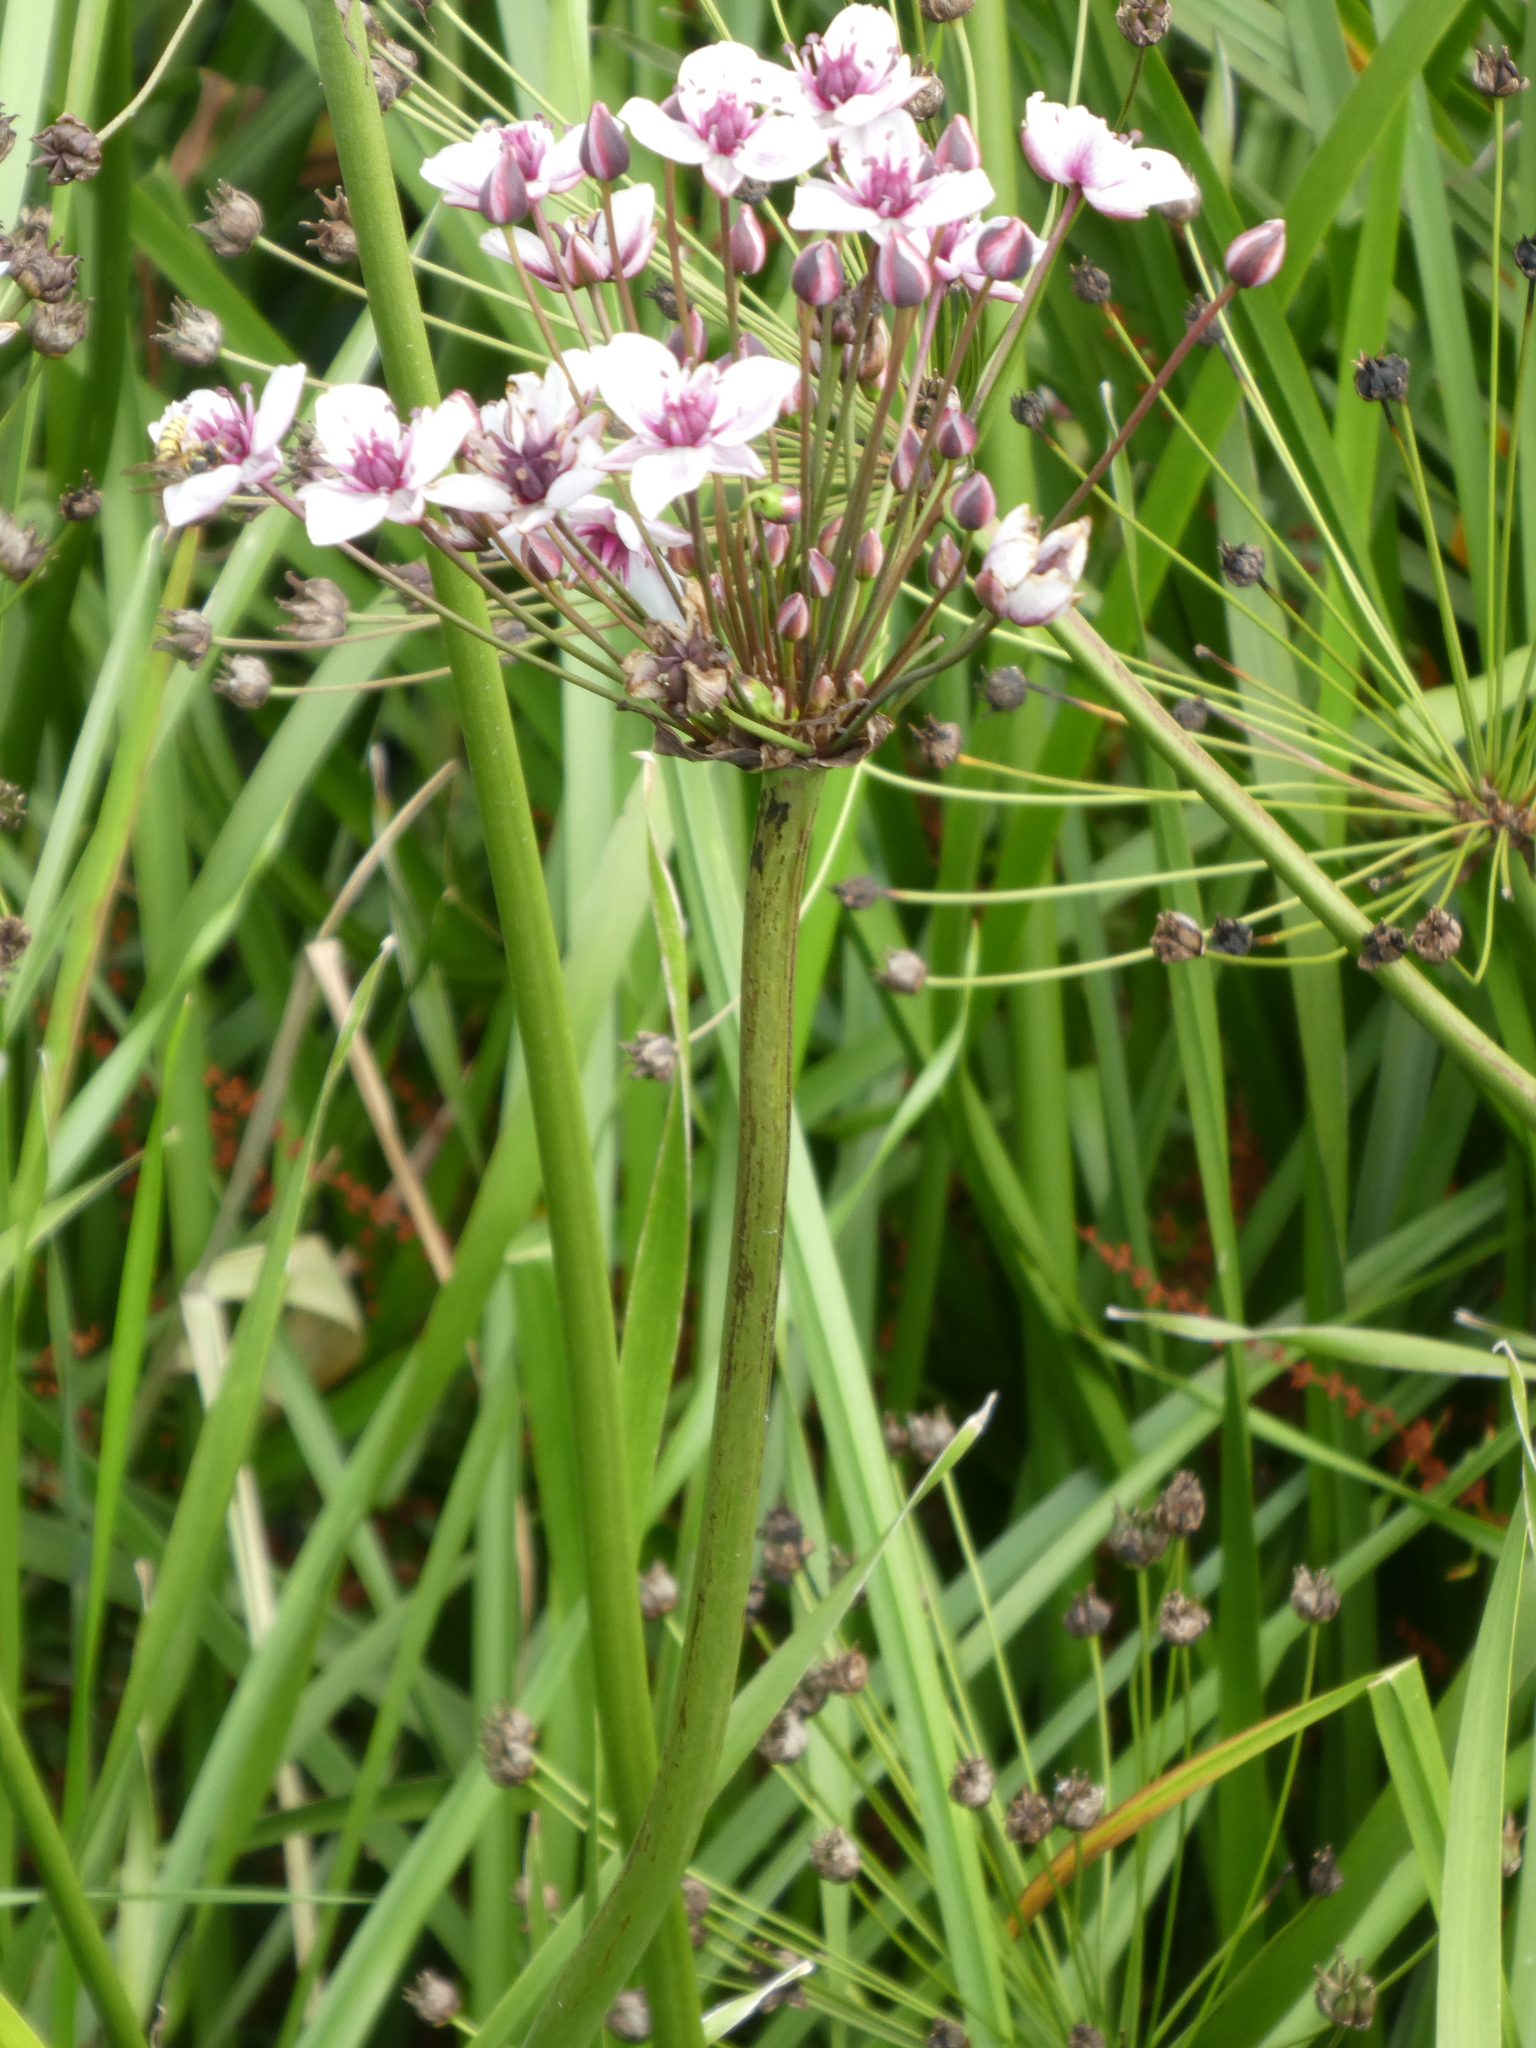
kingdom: Plantae
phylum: Tracheophyta
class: Liliopsida
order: Alismatales
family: Butomaceae
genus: Butomus
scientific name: Butomus umbellatus
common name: Flowering-rush
